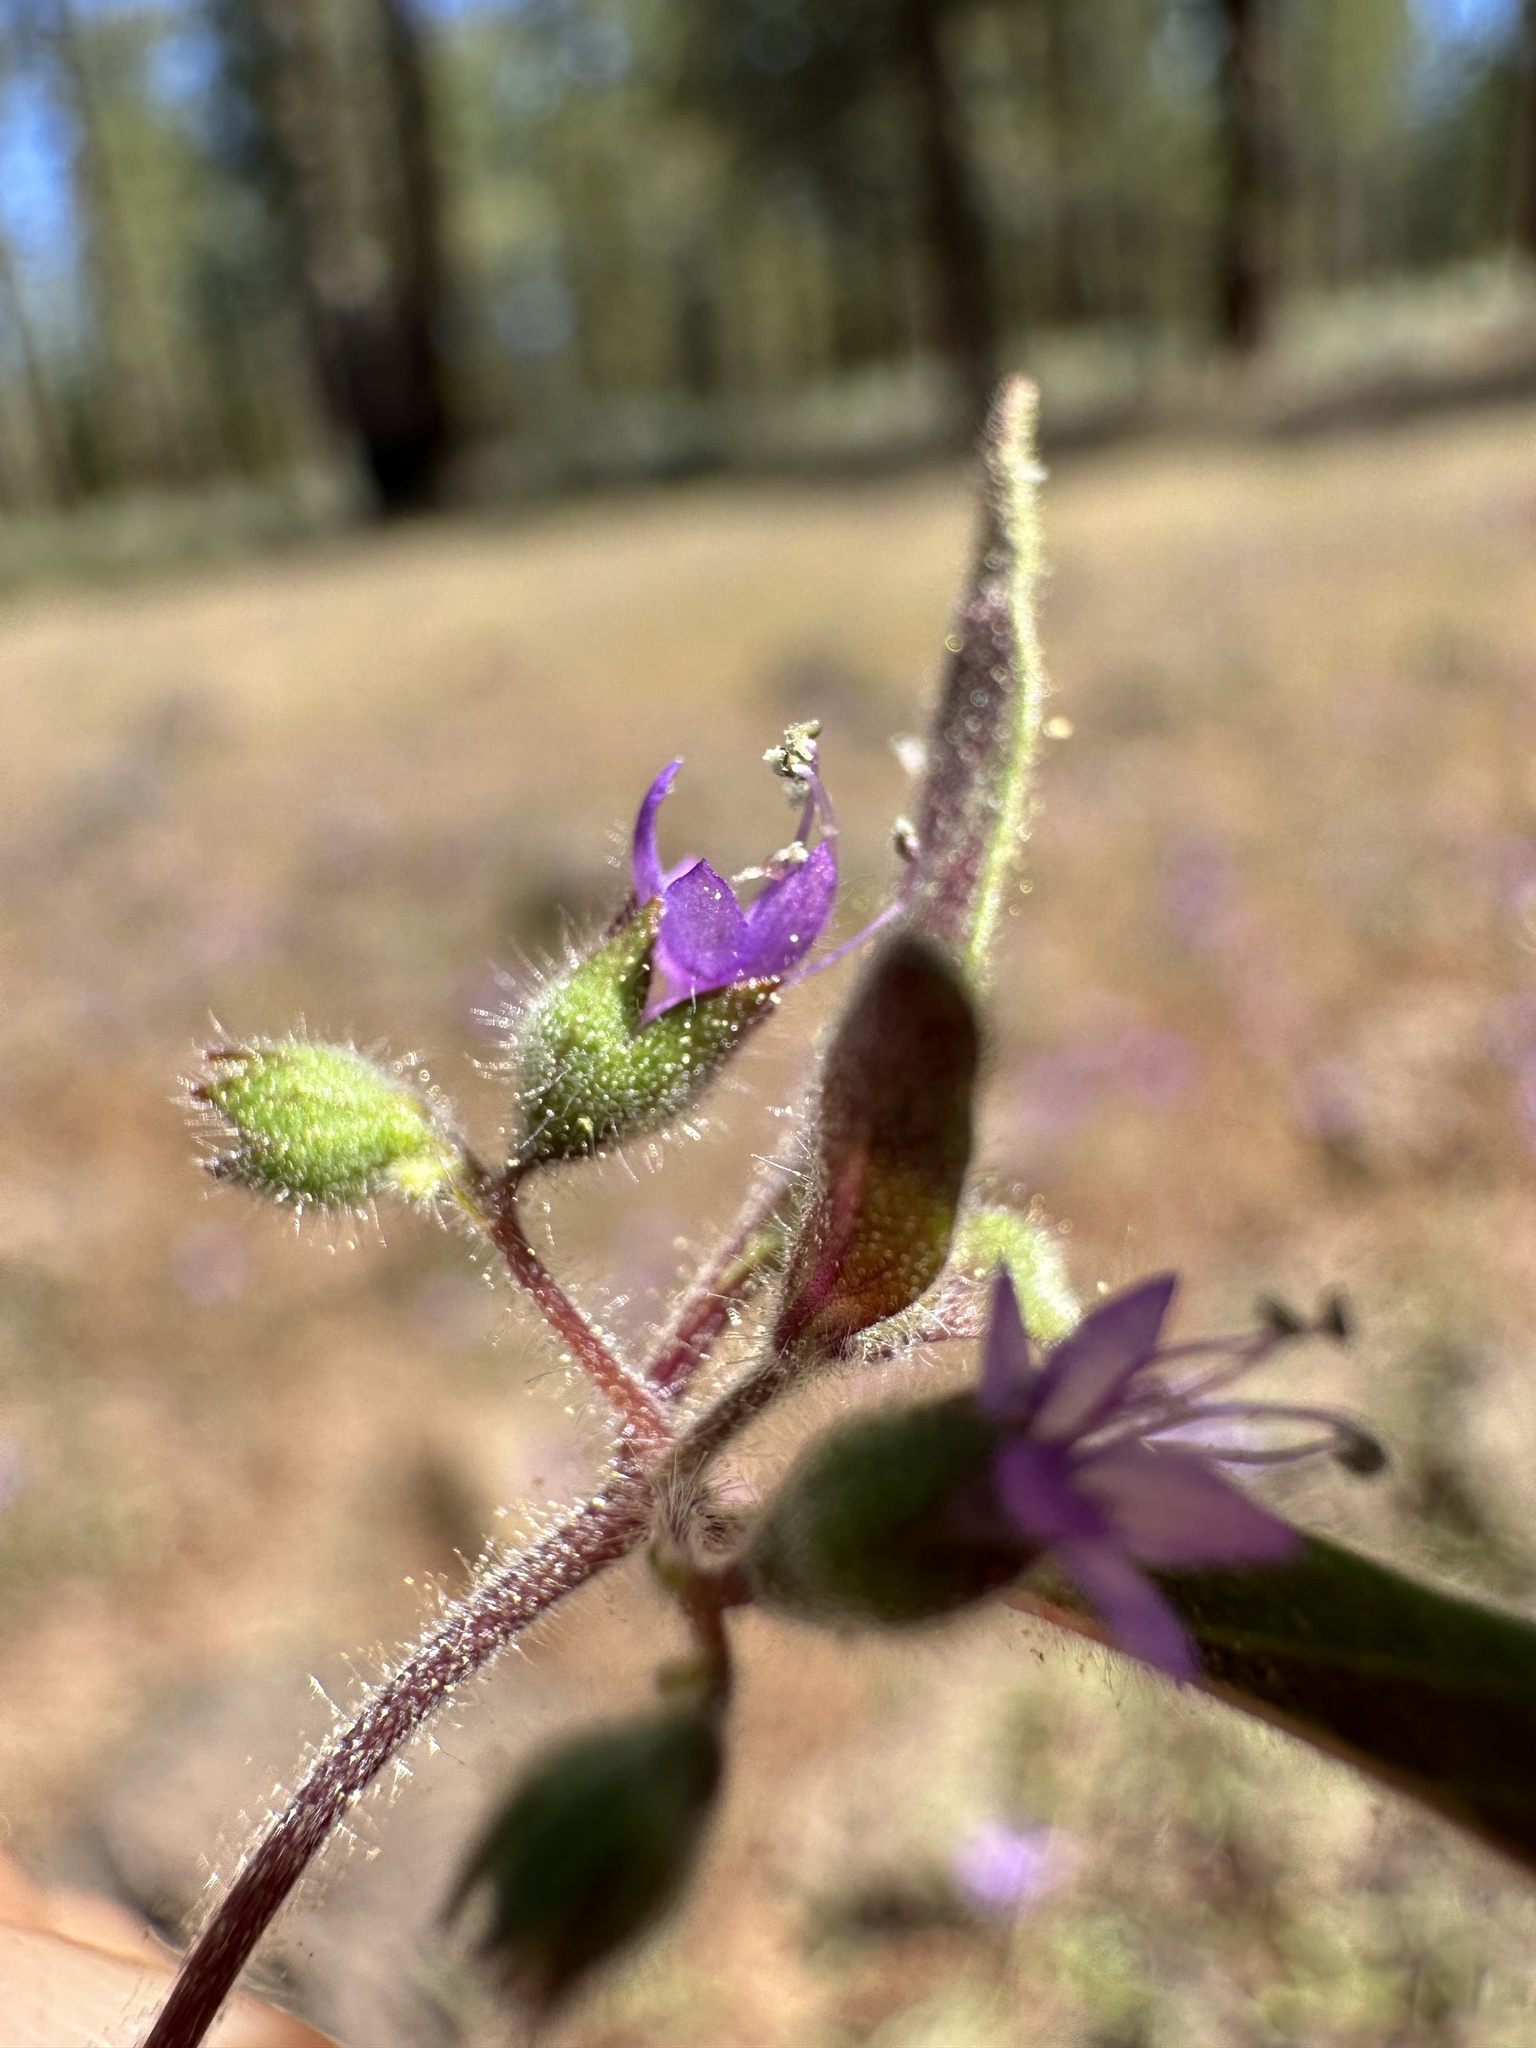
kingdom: Plantae
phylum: Tracheophyta
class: Magnoliopsida
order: Lamiales
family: Lamiaceae
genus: Trichostema
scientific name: Trichostema simulatum
